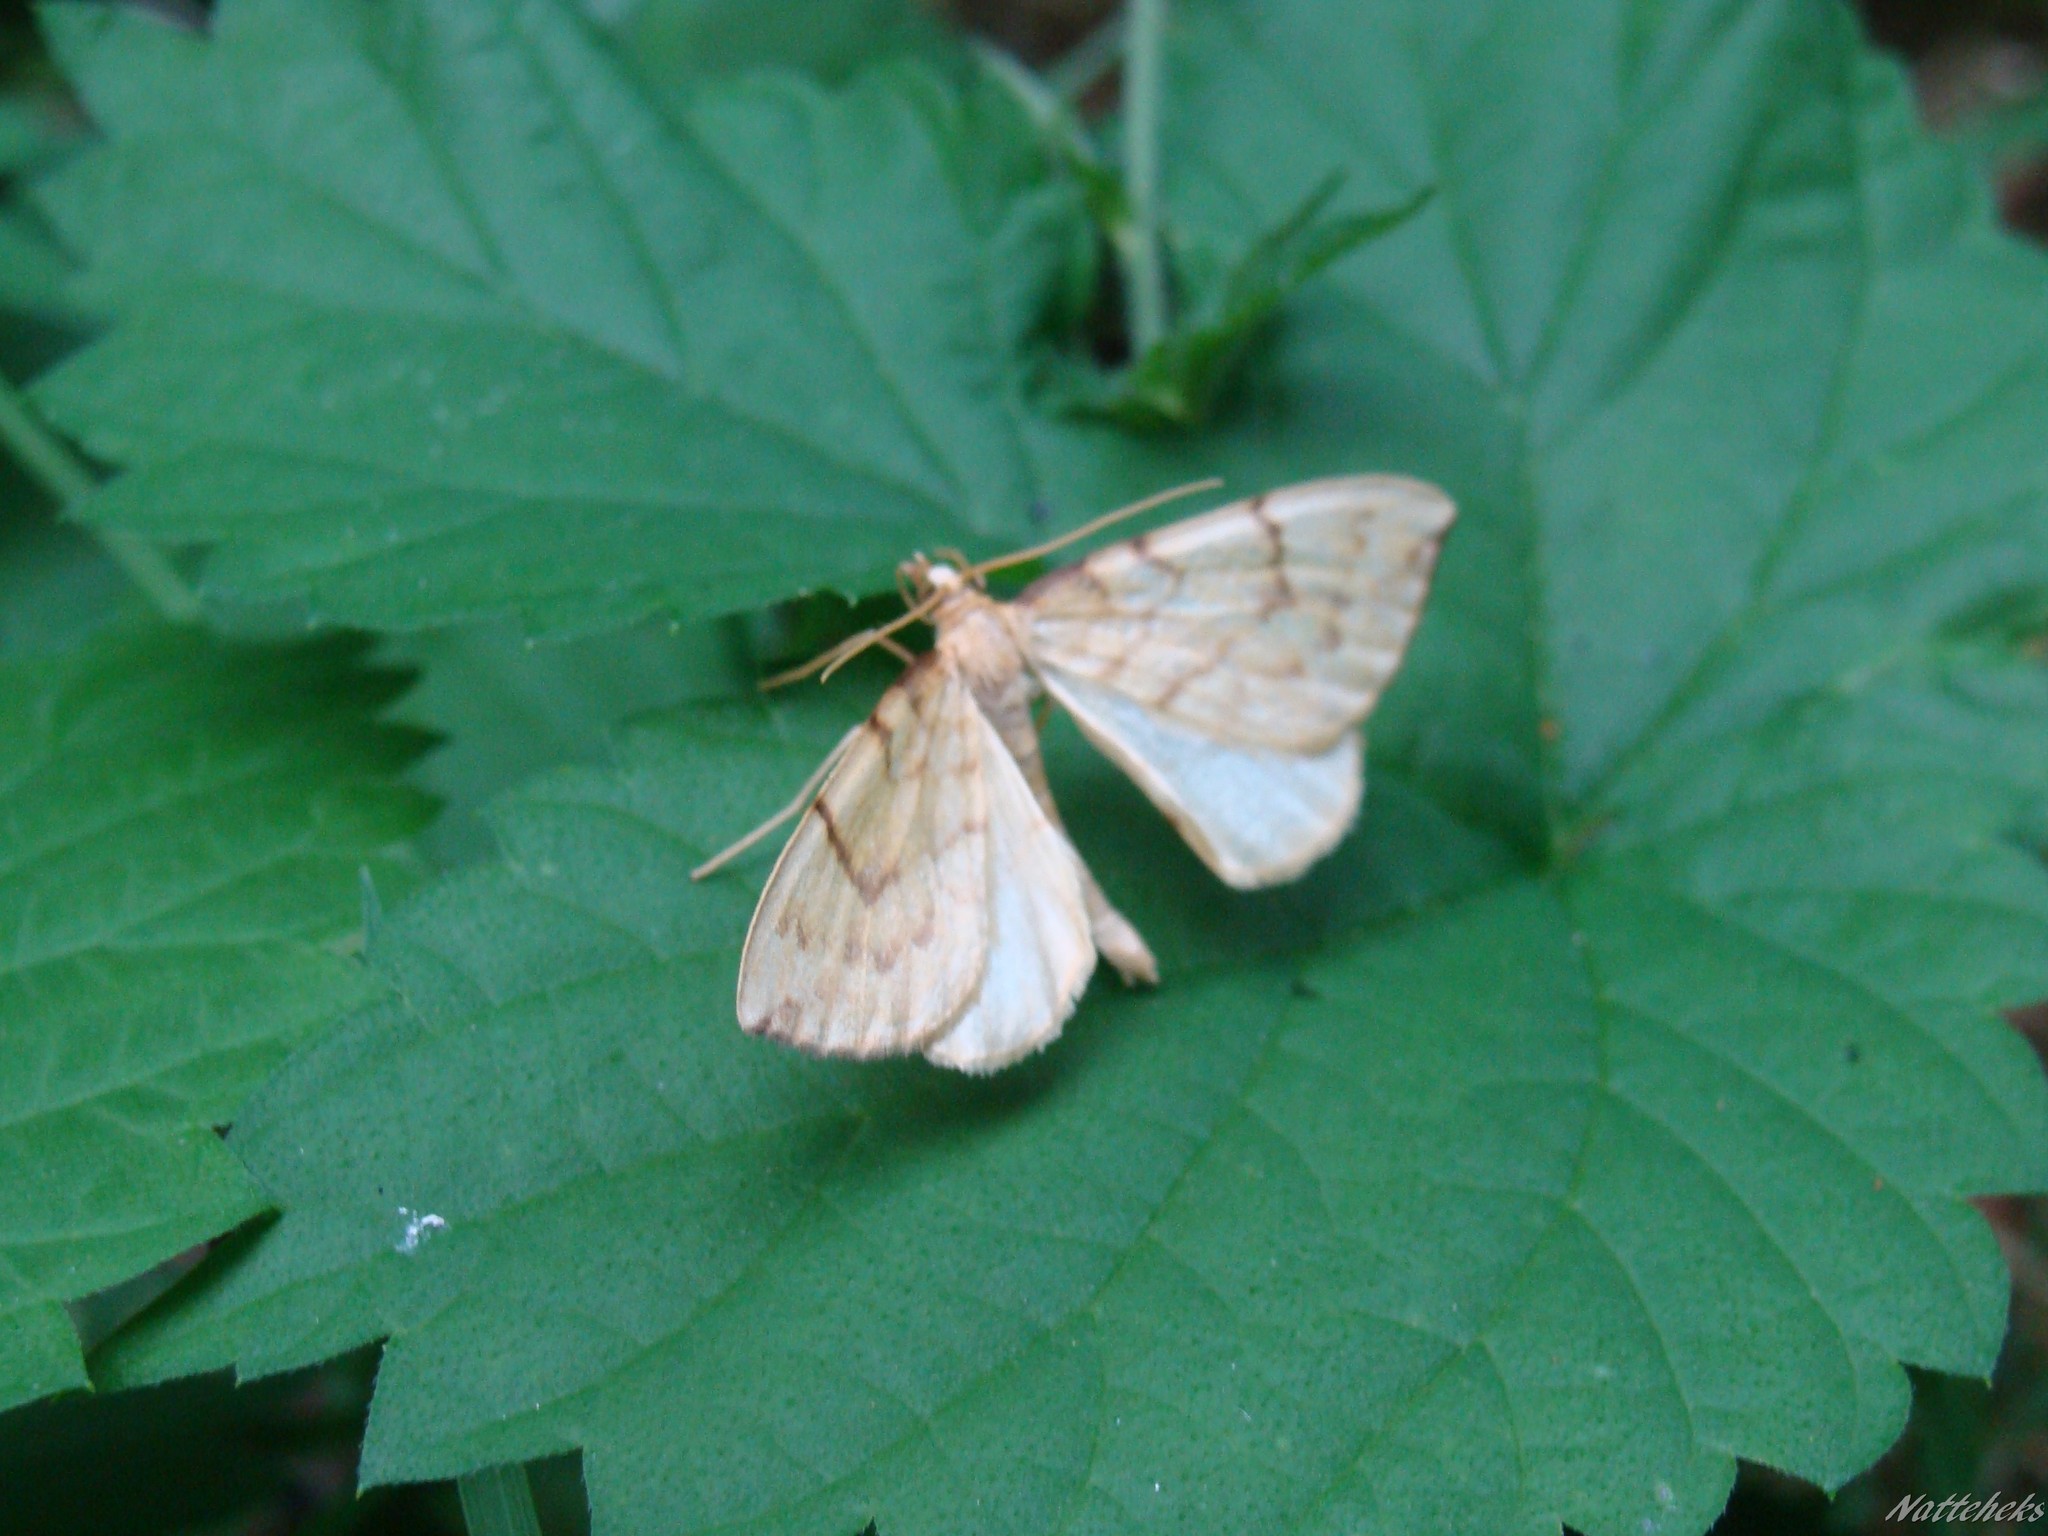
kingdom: Animalia
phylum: Arthropoda
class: Insecta
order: Lepidoptera
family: Geometridae
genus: Eulithis
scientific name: Eulithis pyraliata
